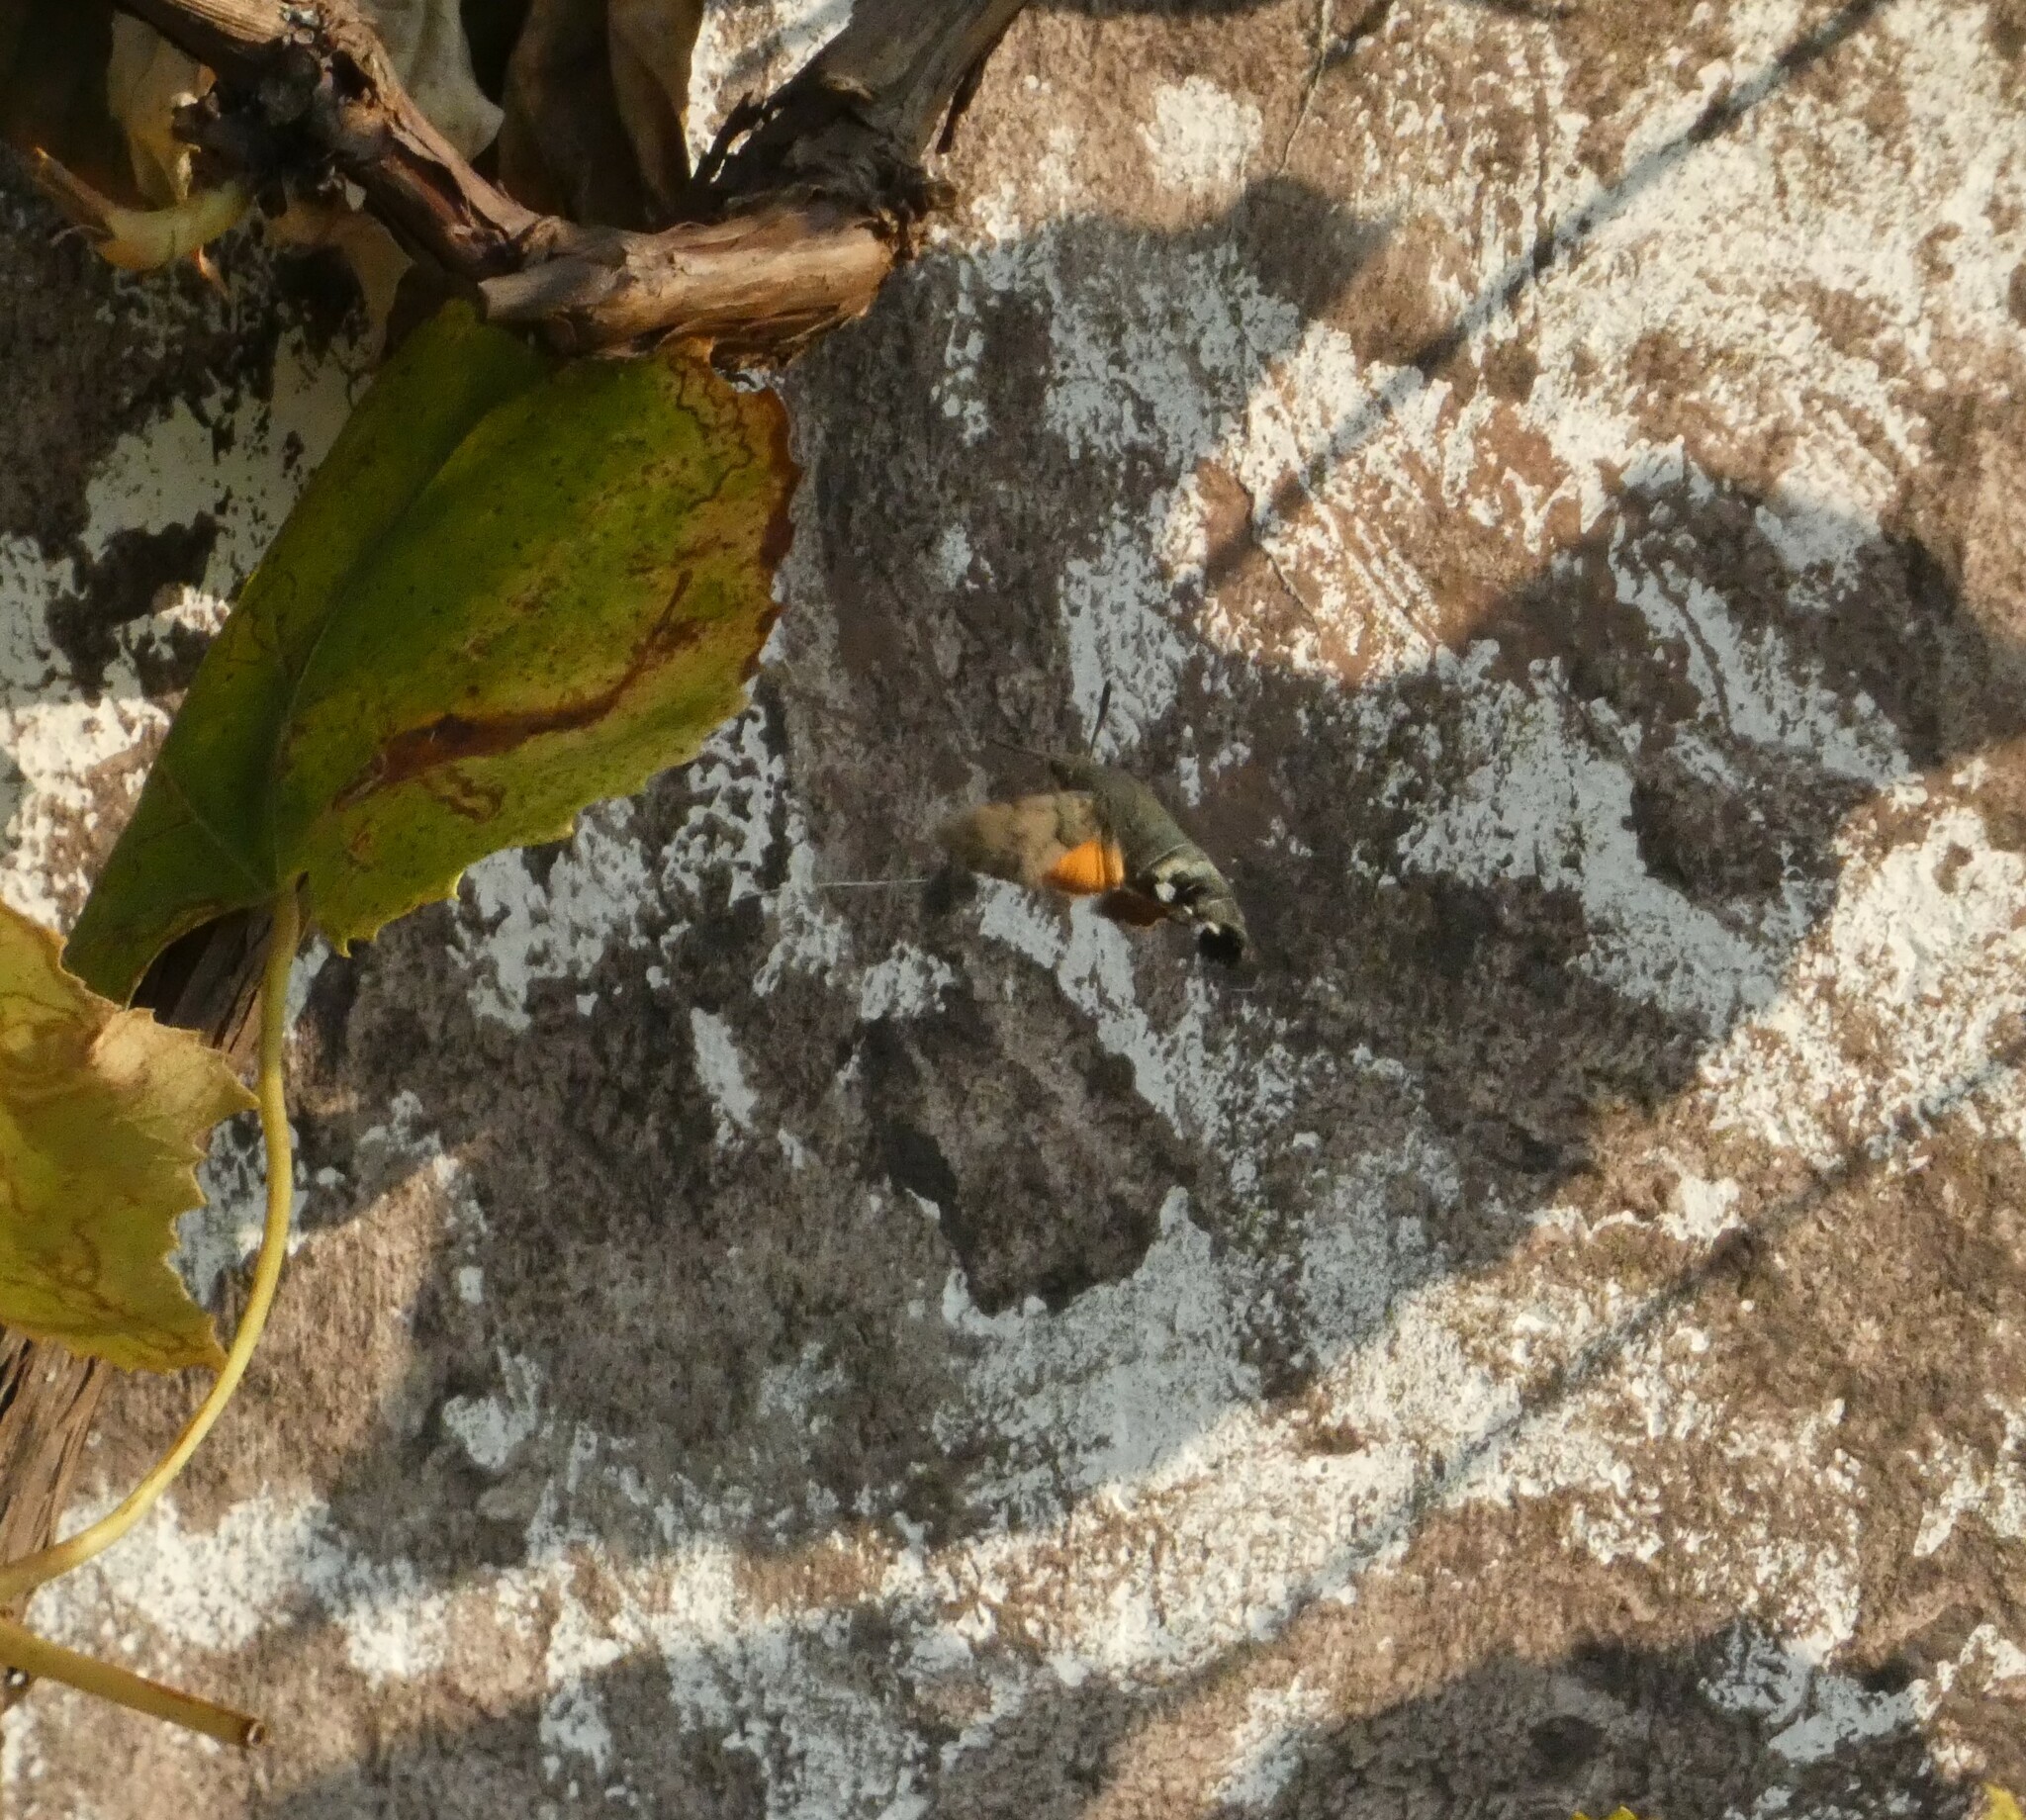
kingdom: Animalia
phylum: Arthropoda
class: Insecta
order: Lepidoptera
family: Sphingidae
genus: Macroglossum
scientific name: Macroglossum stellatarum
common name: Humming-bird hawk-moth
